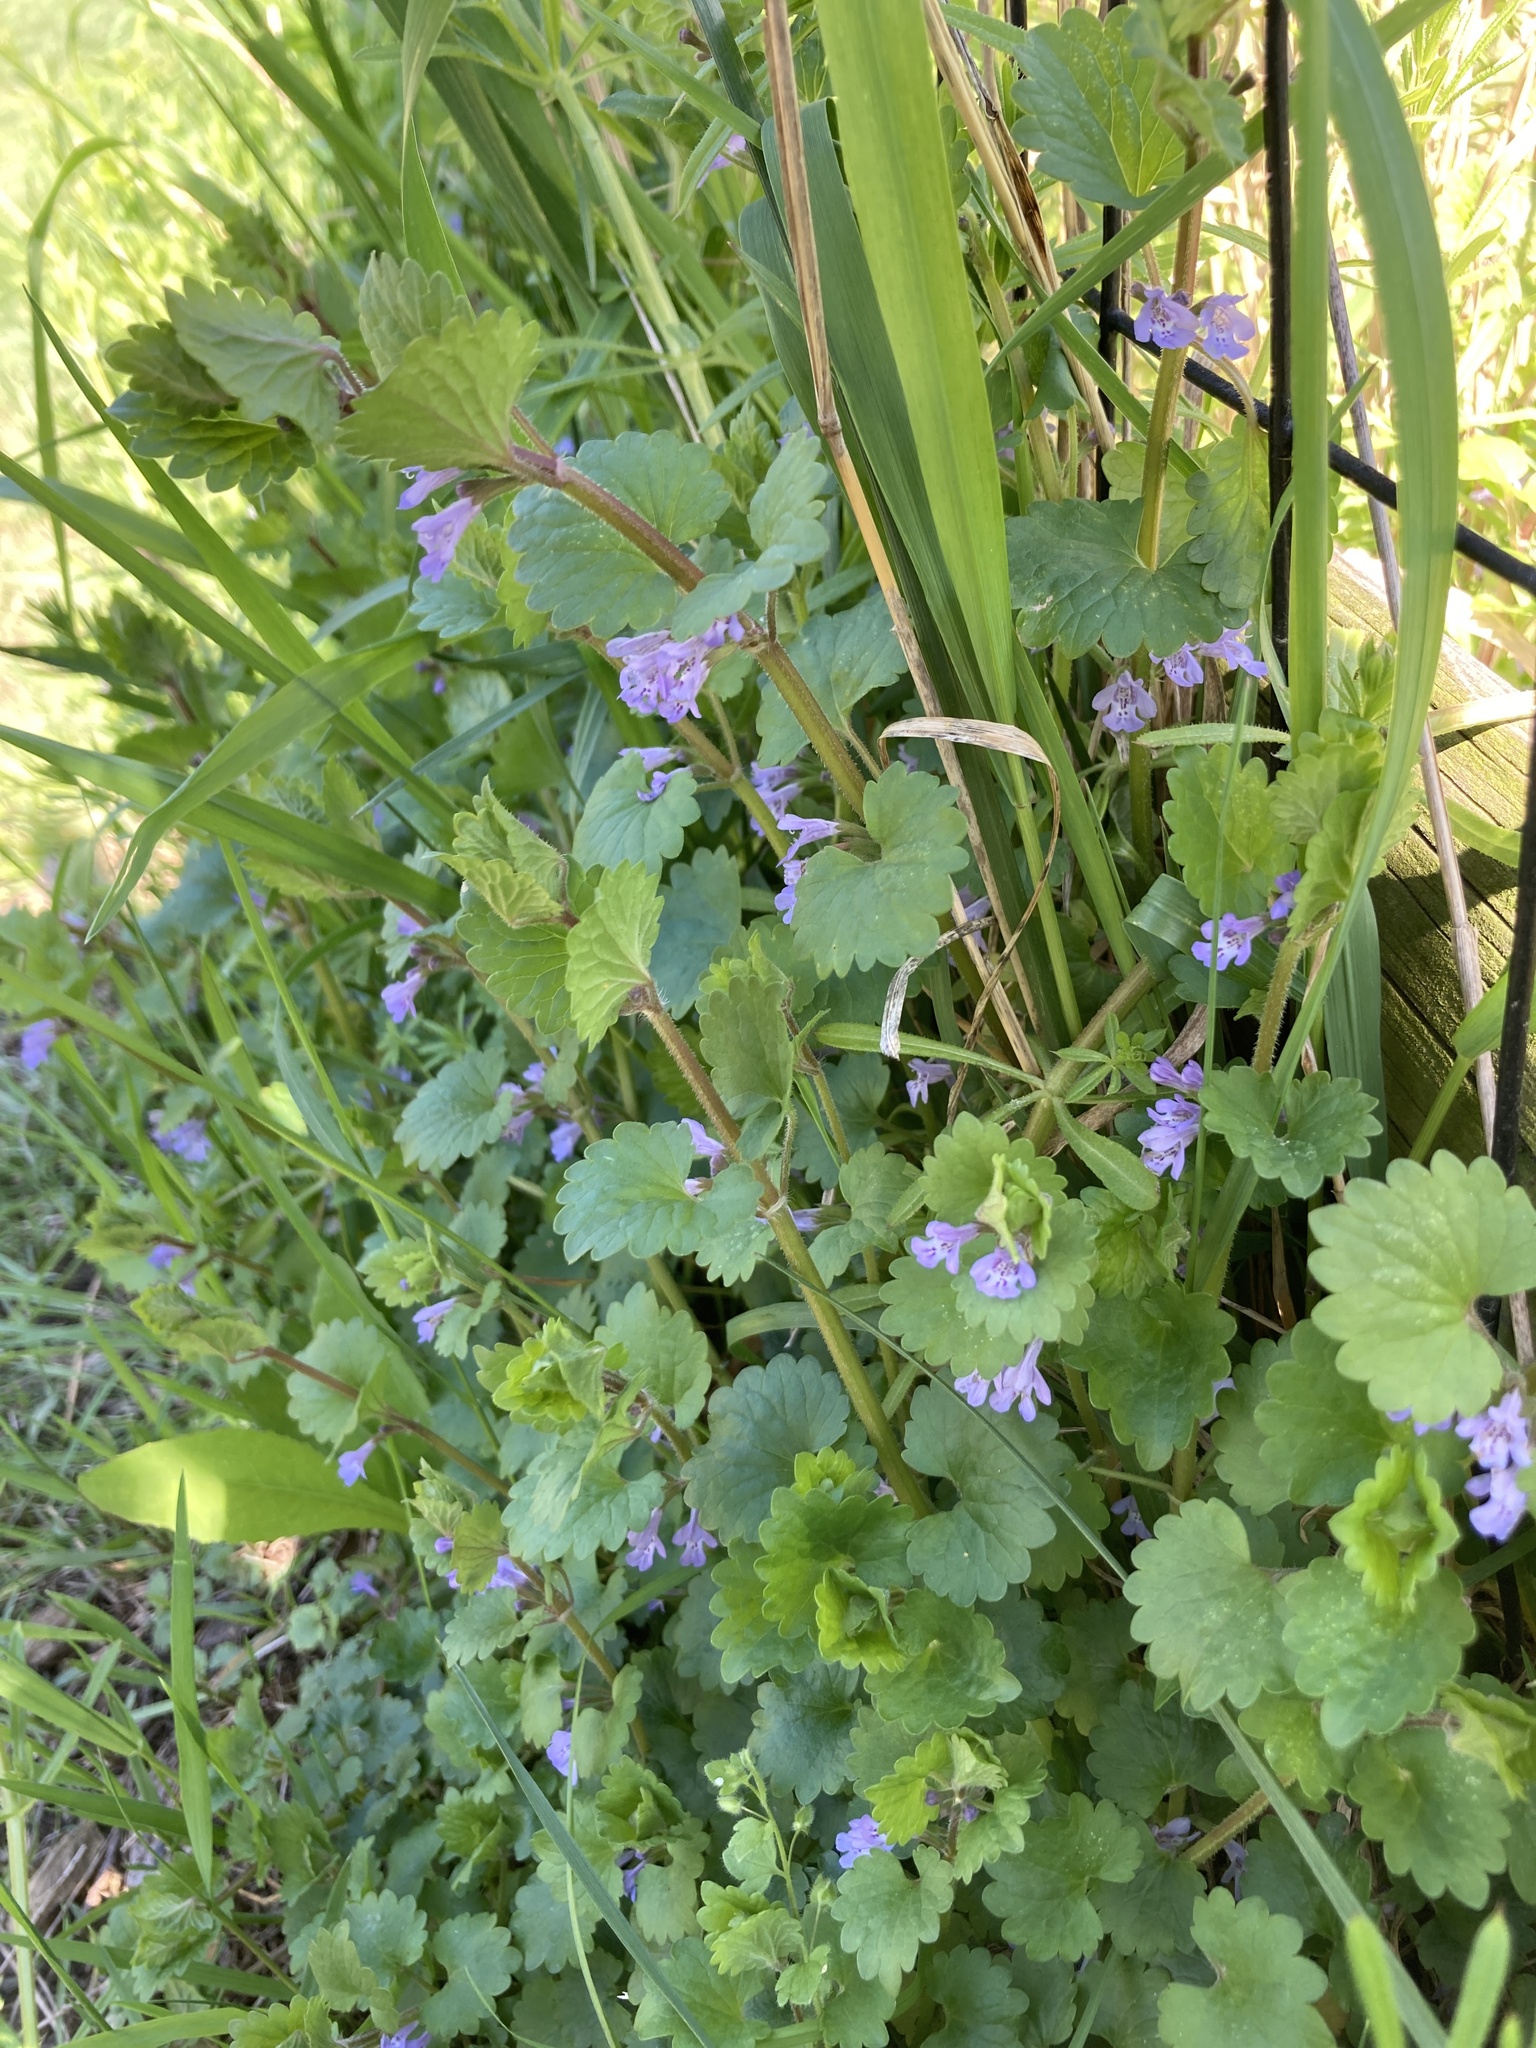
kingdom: Plantae
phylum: Tracheophyta
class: Magnoliopsida
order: Lamiales
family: Lamiaceae
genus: Glechoma
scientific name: Glechoma hederacea
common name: Ground ivy
